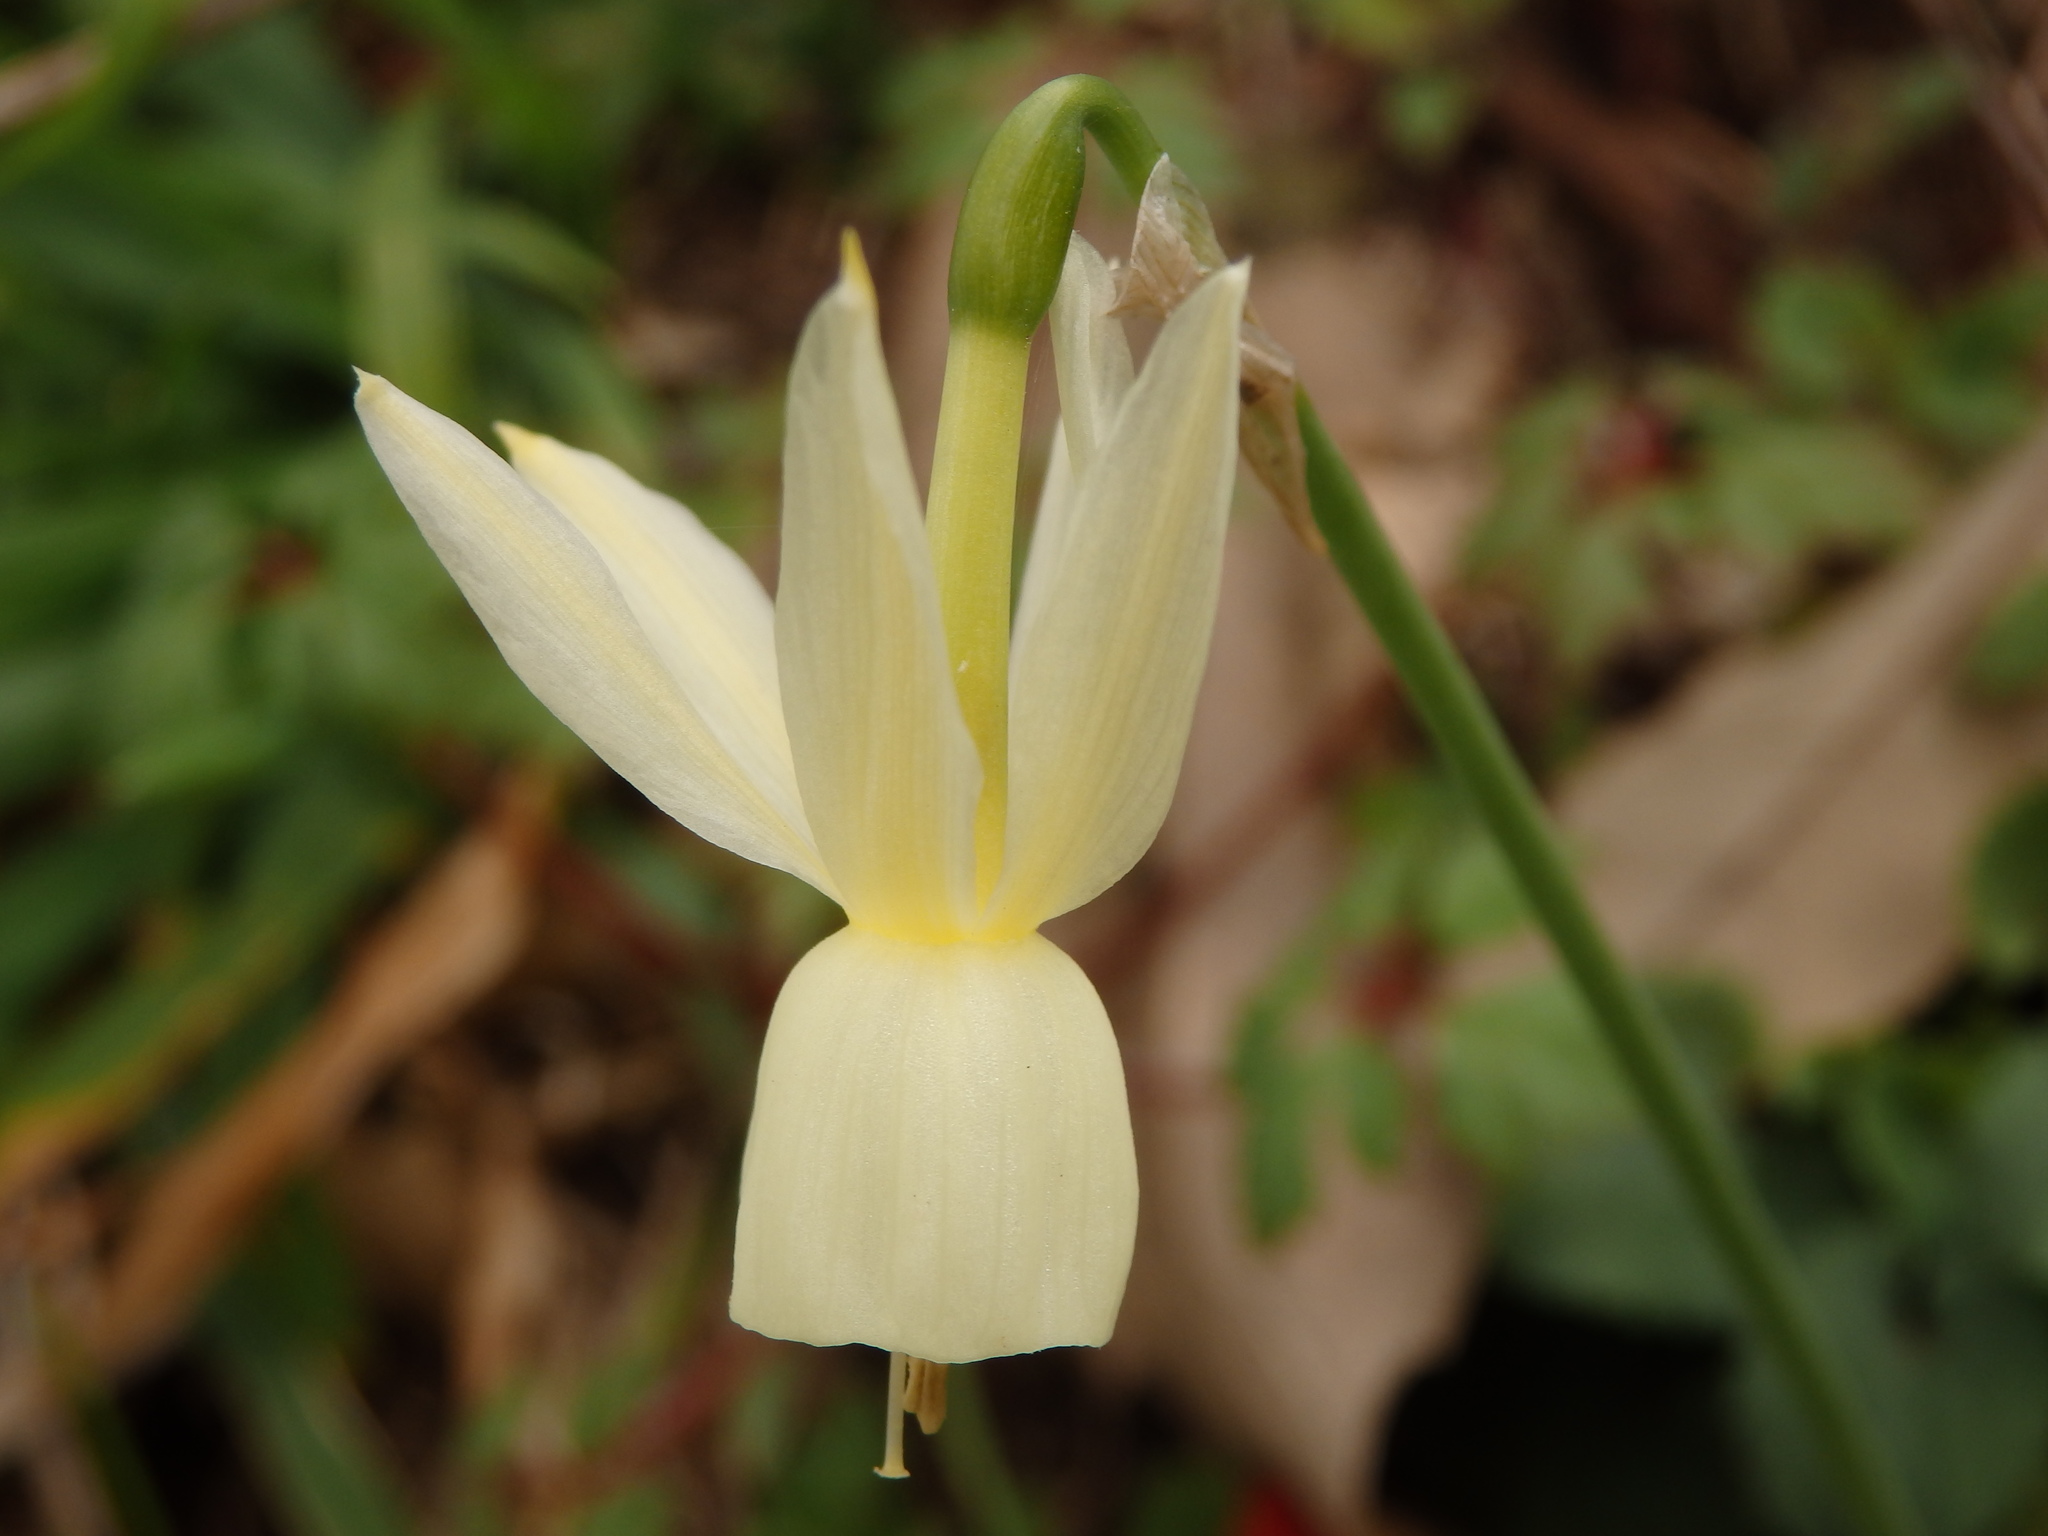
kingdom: Plantae
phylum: Tracheophyta
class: Liliopsida
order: Asparagales
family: Amaryllidaceae
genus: Narcissus
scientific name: Narcissus triandrus
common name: Angel's-tears
